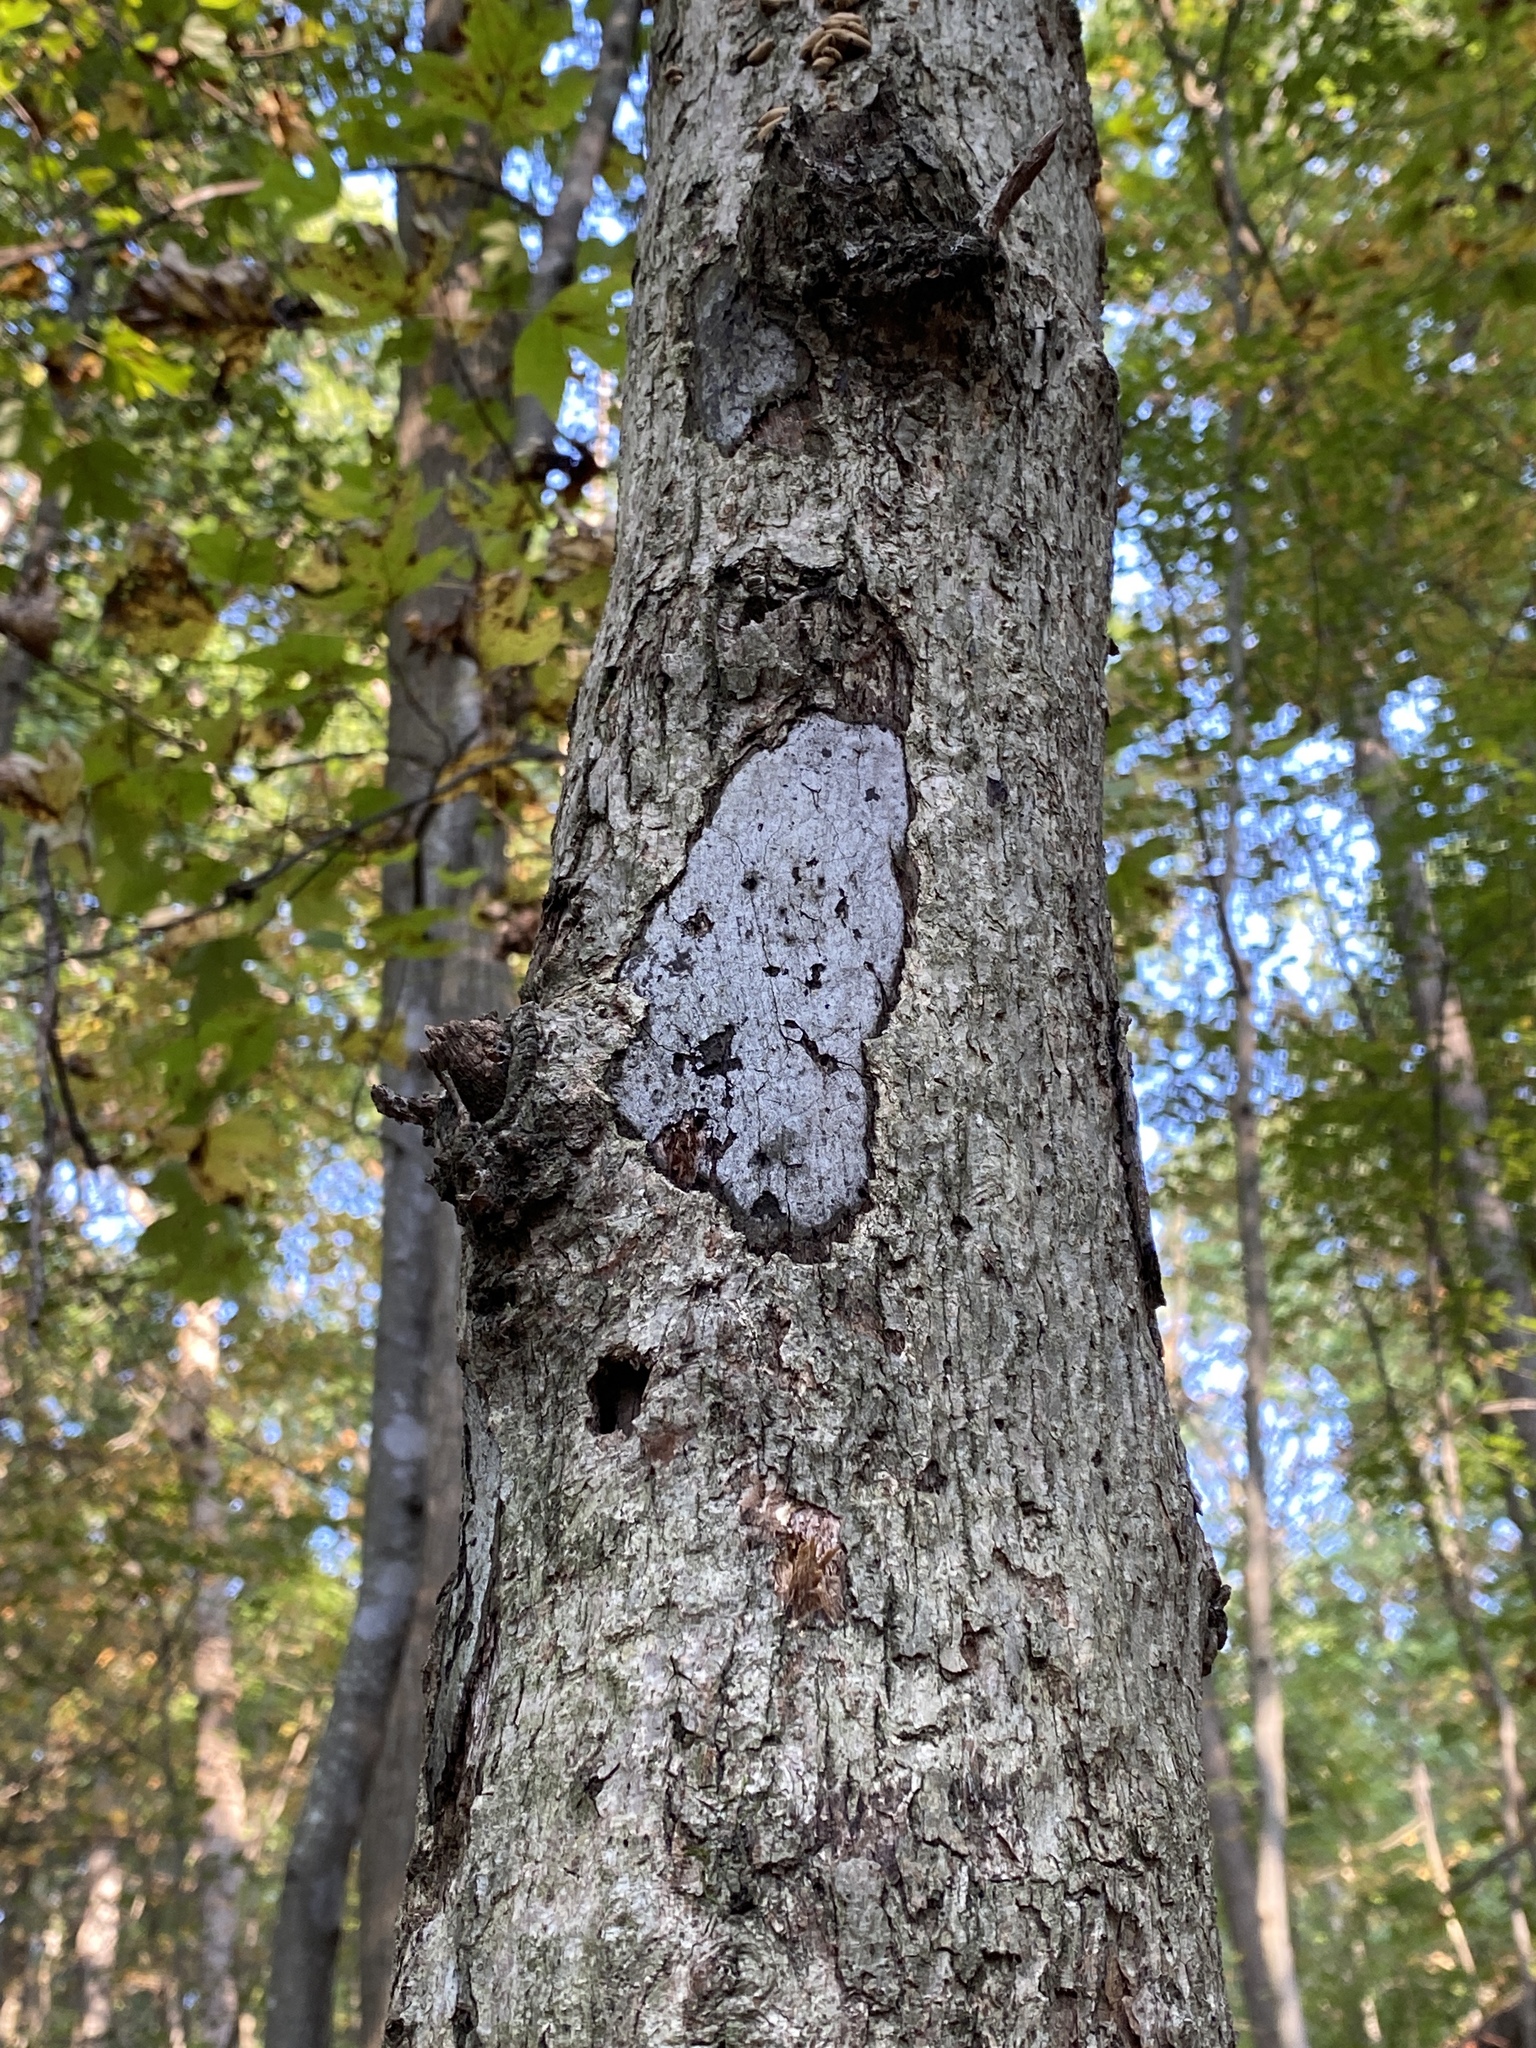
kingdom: Fungi
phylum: Ascomycota
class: Sordariomycetes
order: Xylariales
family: Graphostromataceae
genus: Biscogniauxia
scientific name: Biscogniauxia atropunctata
